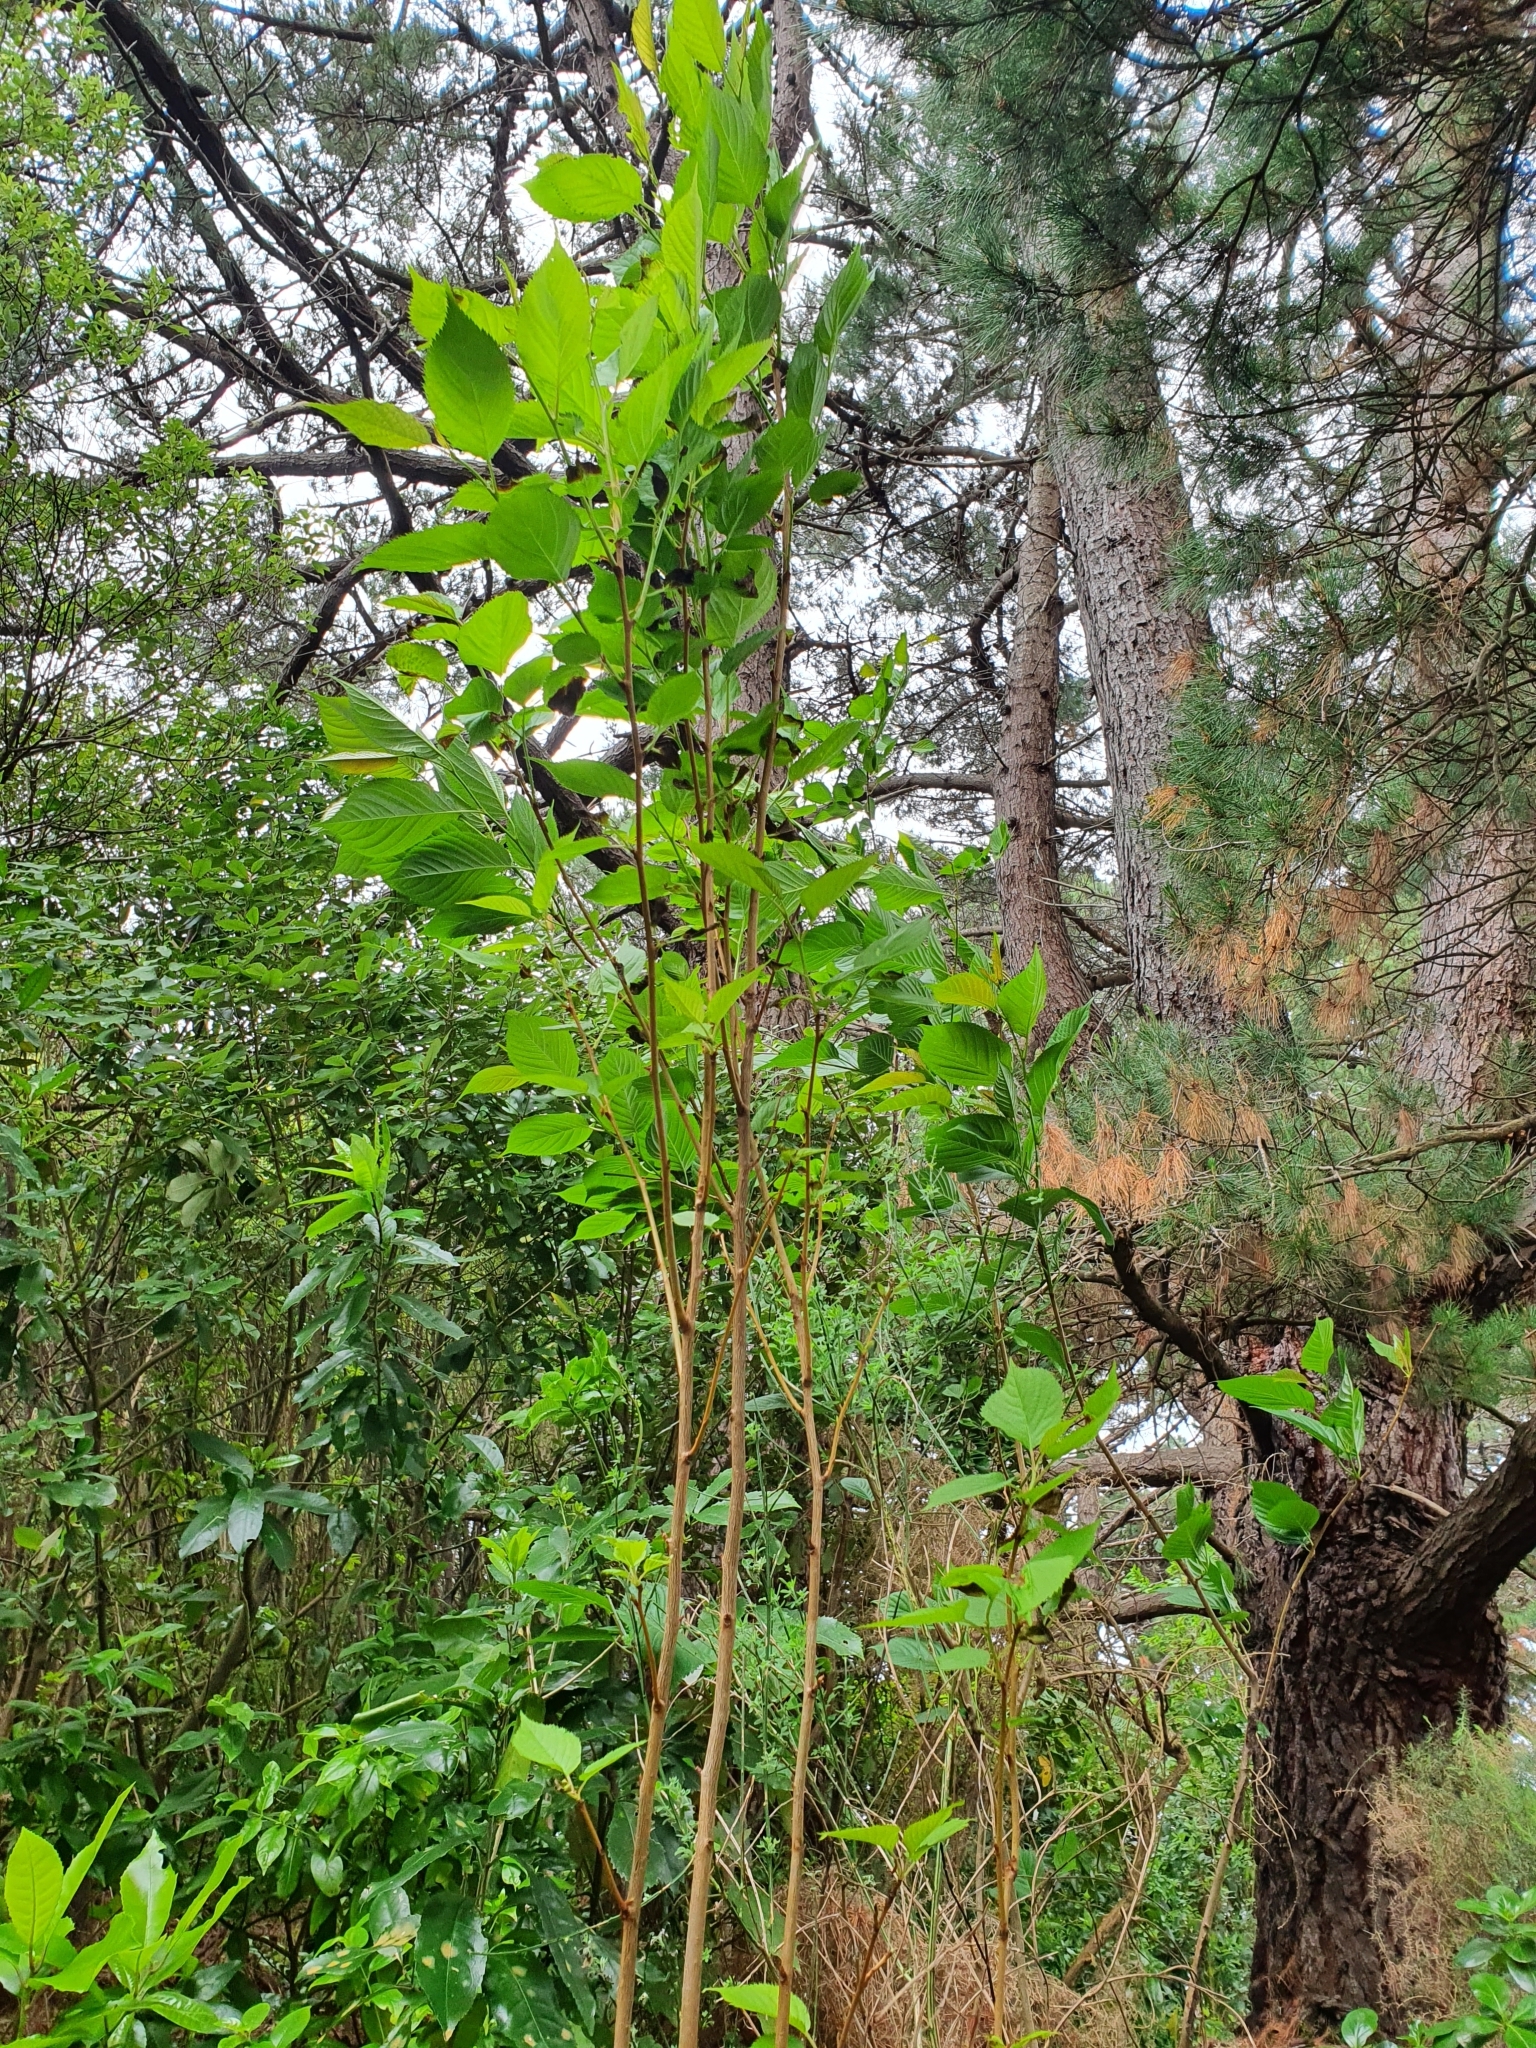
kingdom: Plantae
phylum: Tracheophyta
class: Magnoliopsida
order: Rosales
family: Rosaceae
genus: Prunus
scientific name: Prunus campanulata
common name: Taiwan flowering cherry
